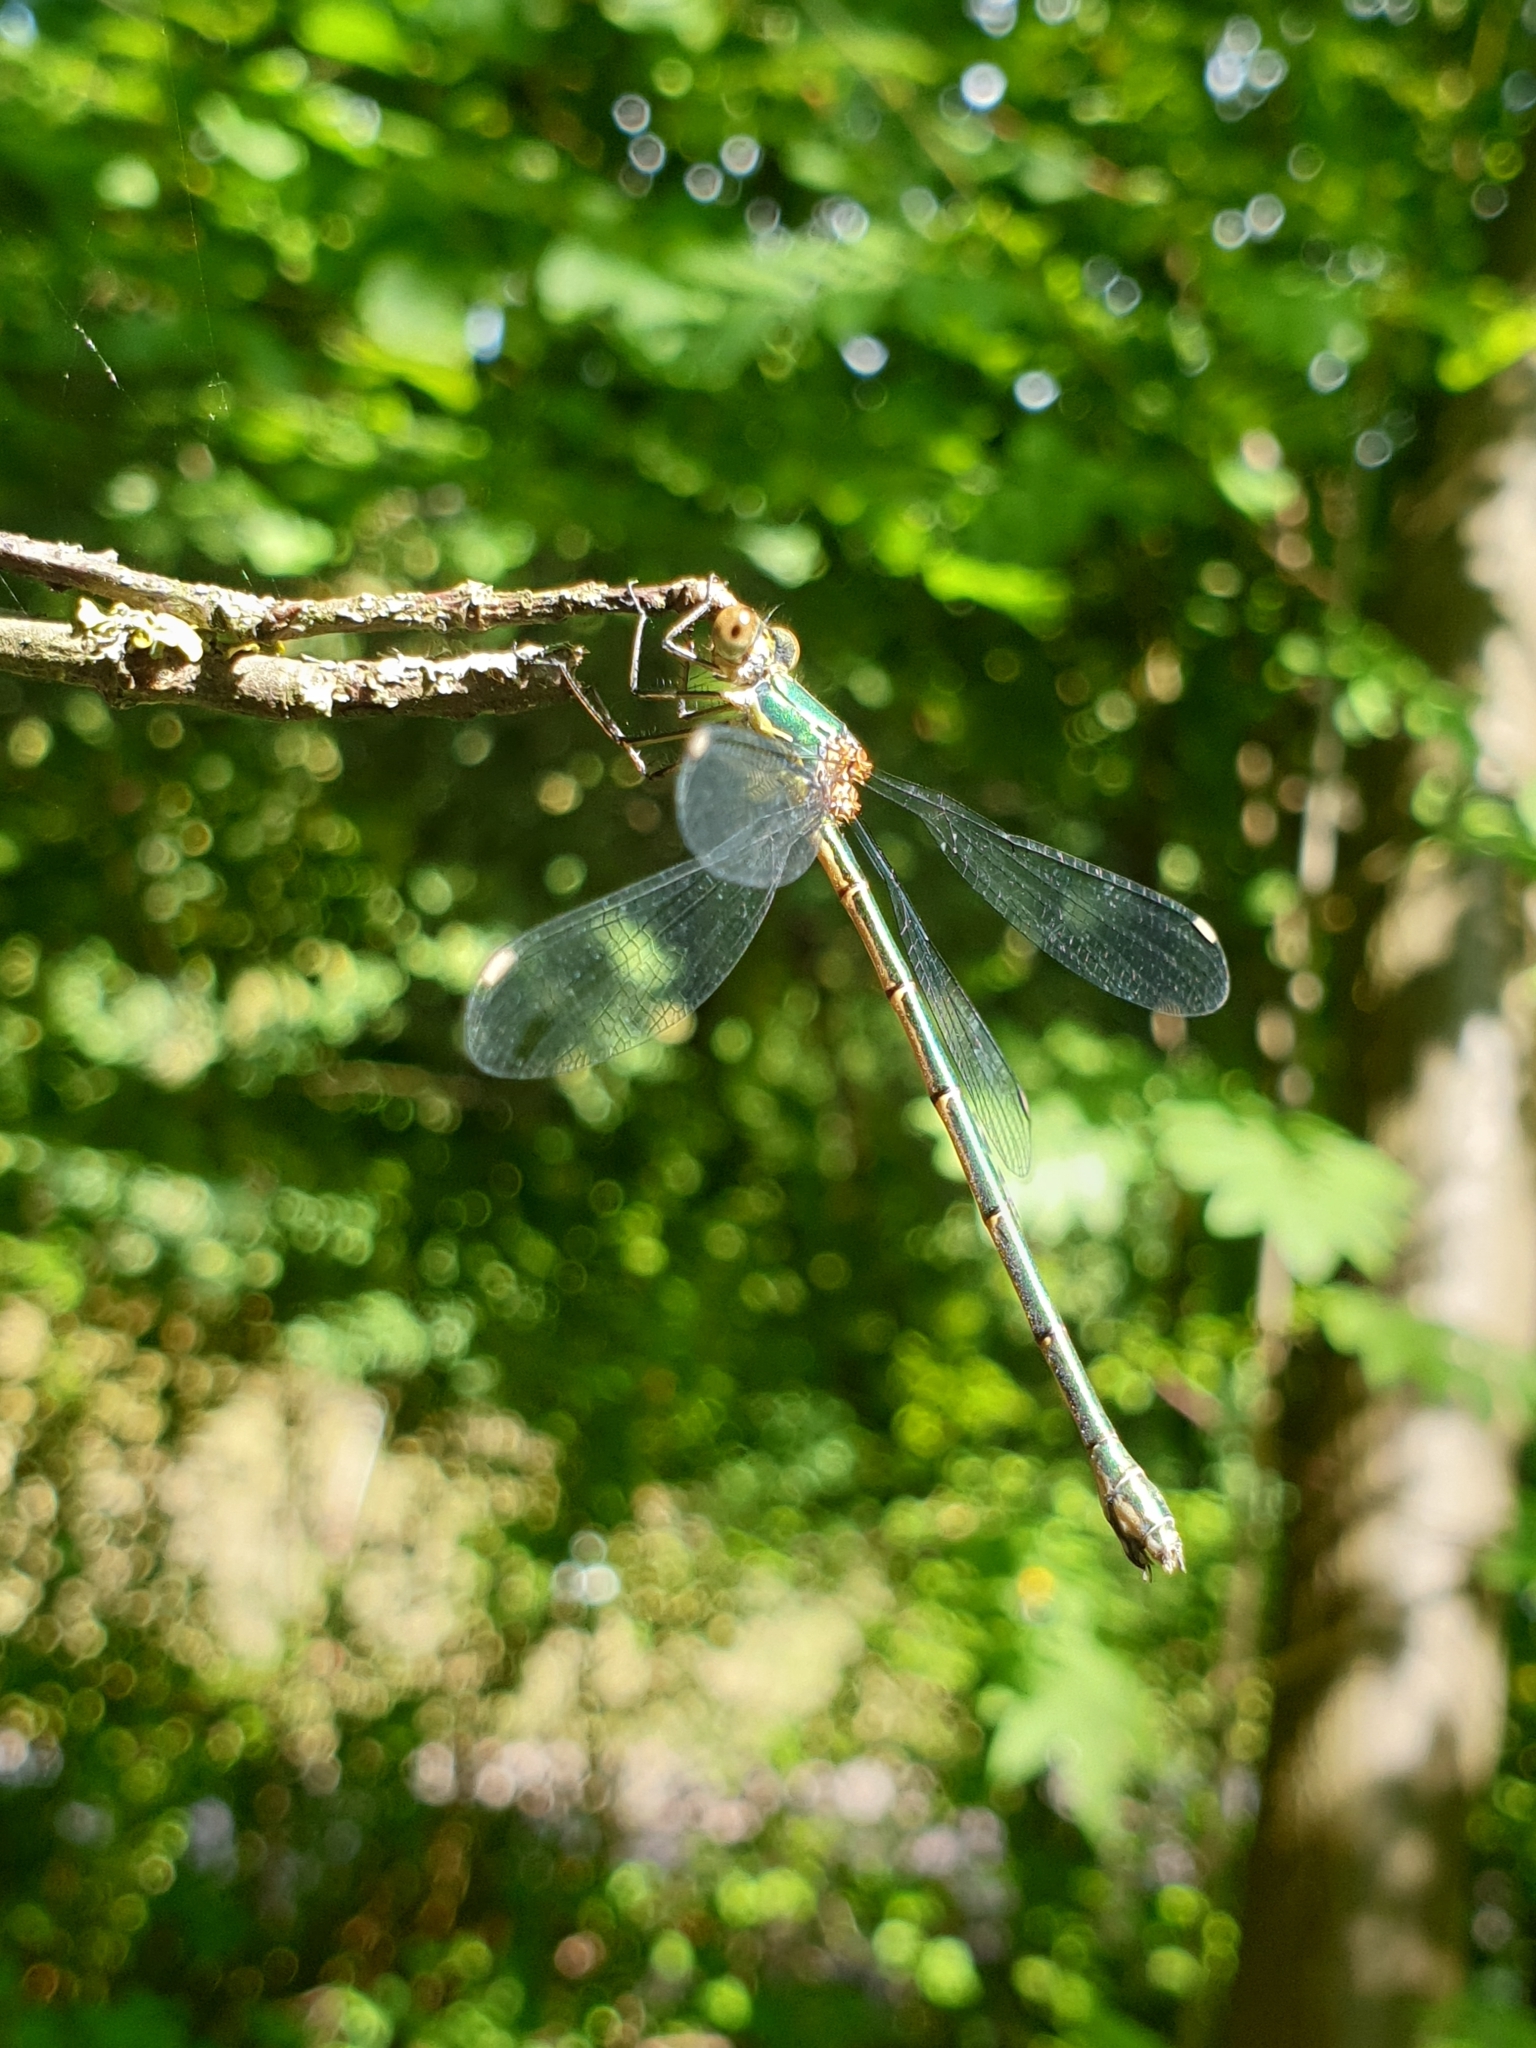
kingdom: Animalia
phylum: Arthropoda
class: Insecta
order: Odonata
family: Lestidae
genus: Chalcolestes
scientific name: Chalcolestes viridis
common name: Green emerald damselfly
